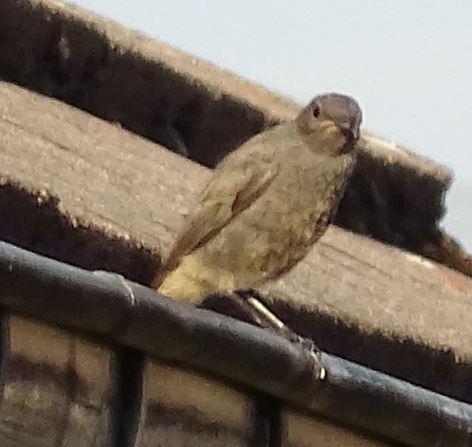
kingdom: Animalia
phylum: Chordata
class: Aves
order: Passeriformes
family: Muscicapidae
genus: Phoenicurus
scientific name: Phoenicurus ochruros
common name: Black redstart
